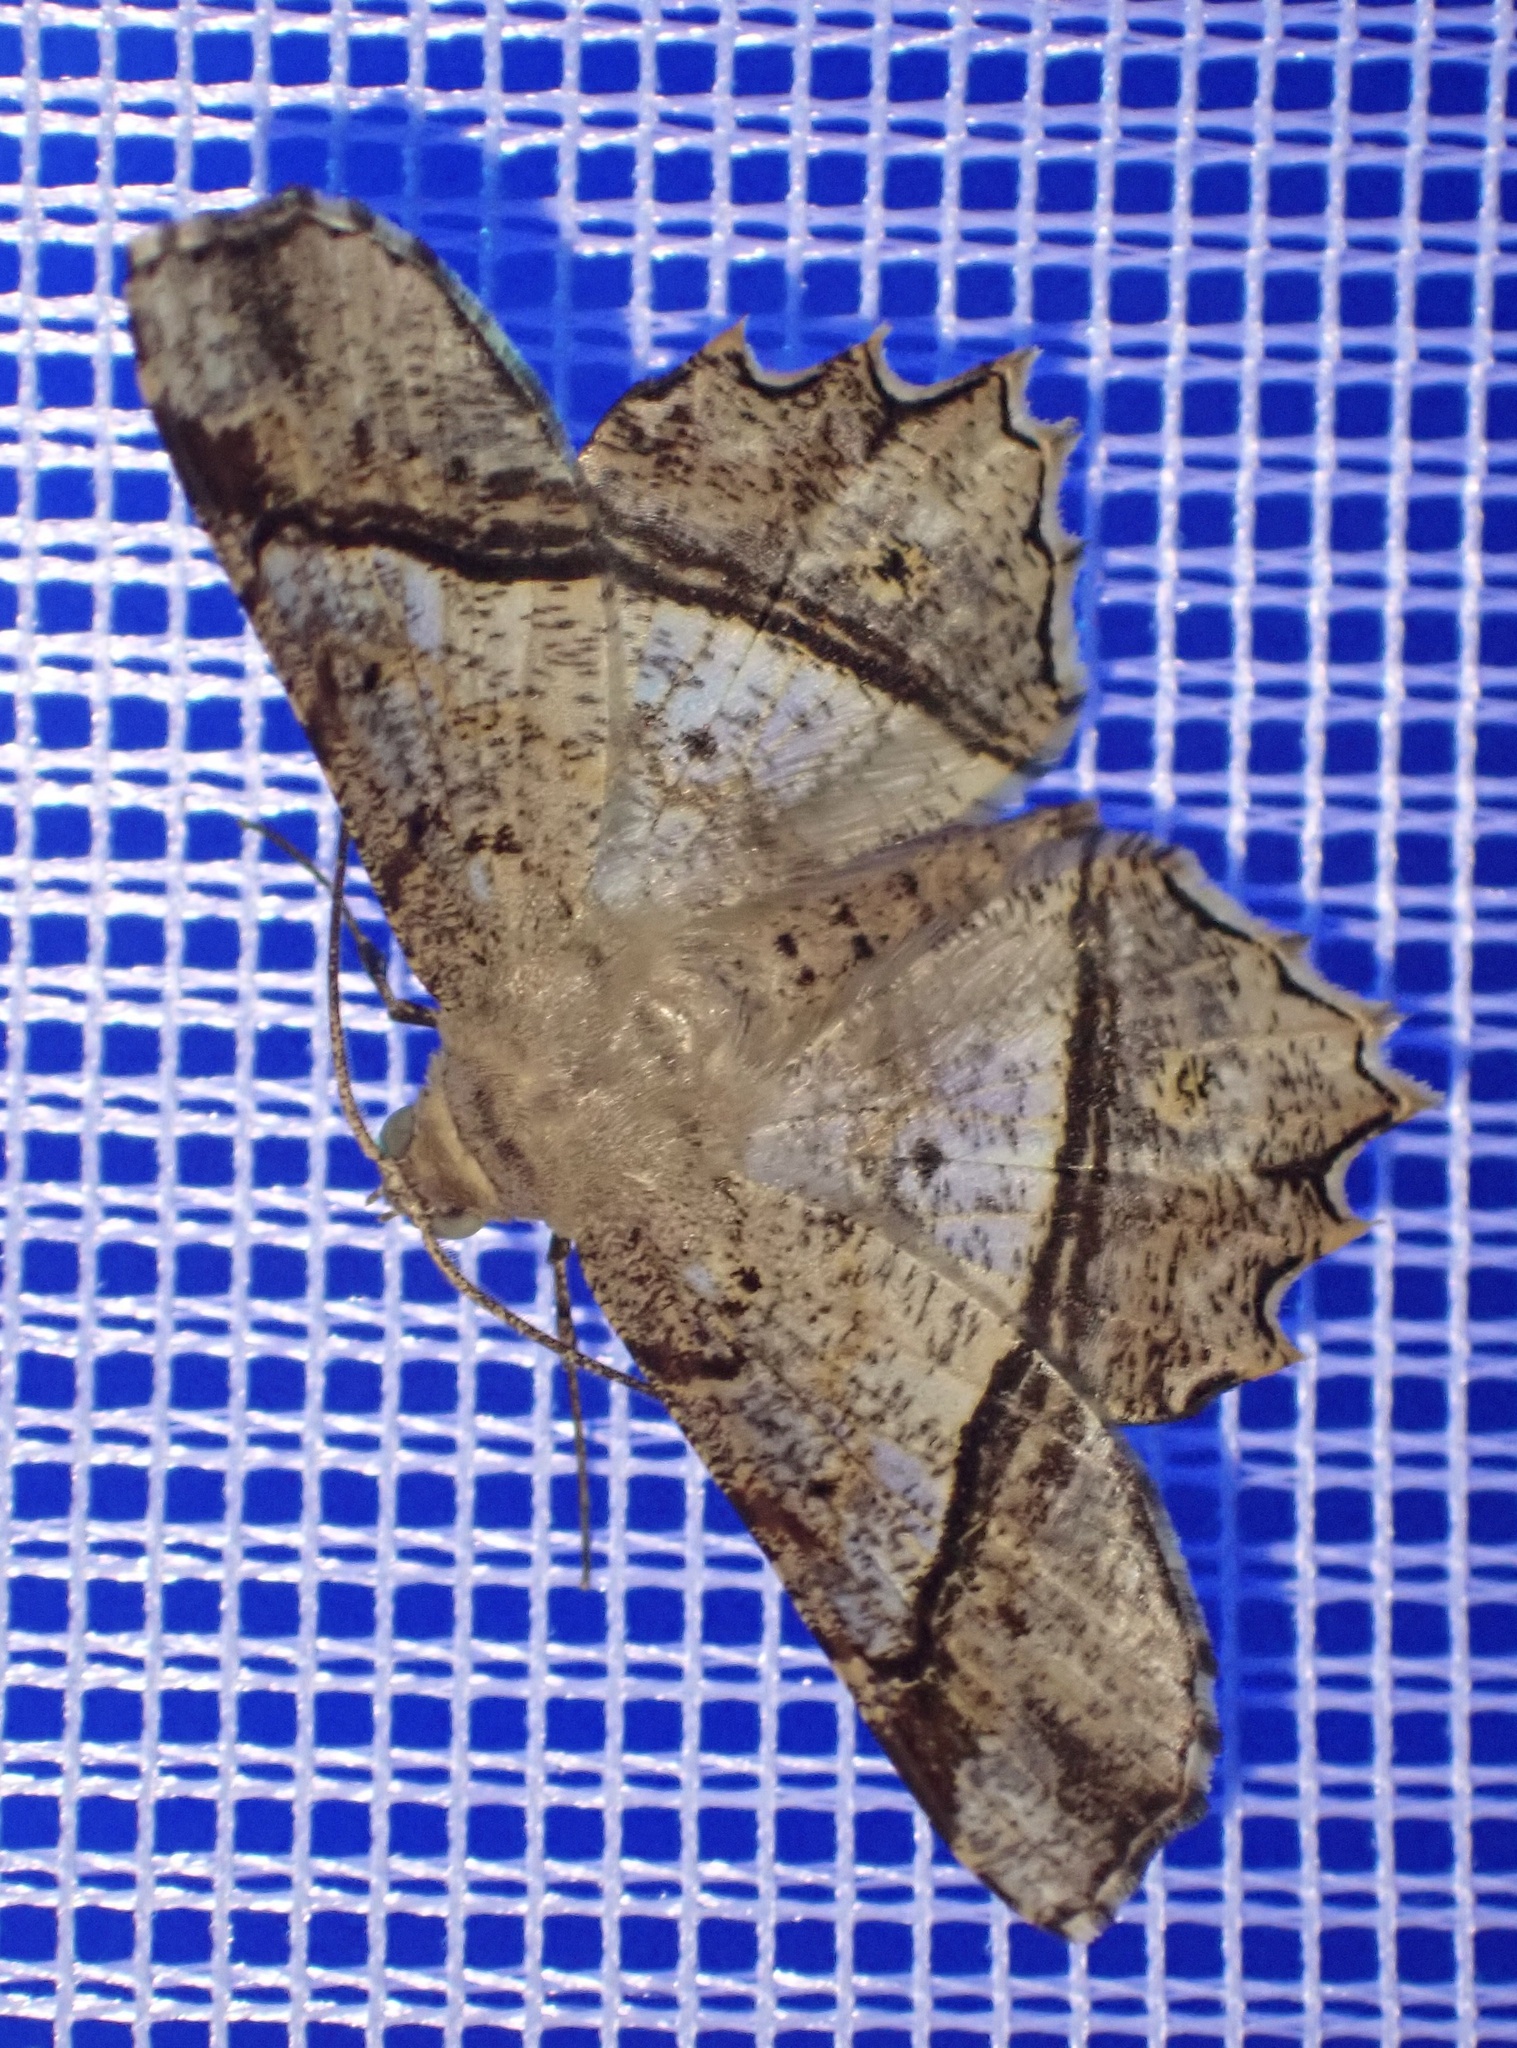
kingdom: Animalia
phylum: Arthropoda
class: Insecta
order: Lepidoptera
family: Geometridae
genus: Chiasmia
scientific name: Chiasmia avitusaria
